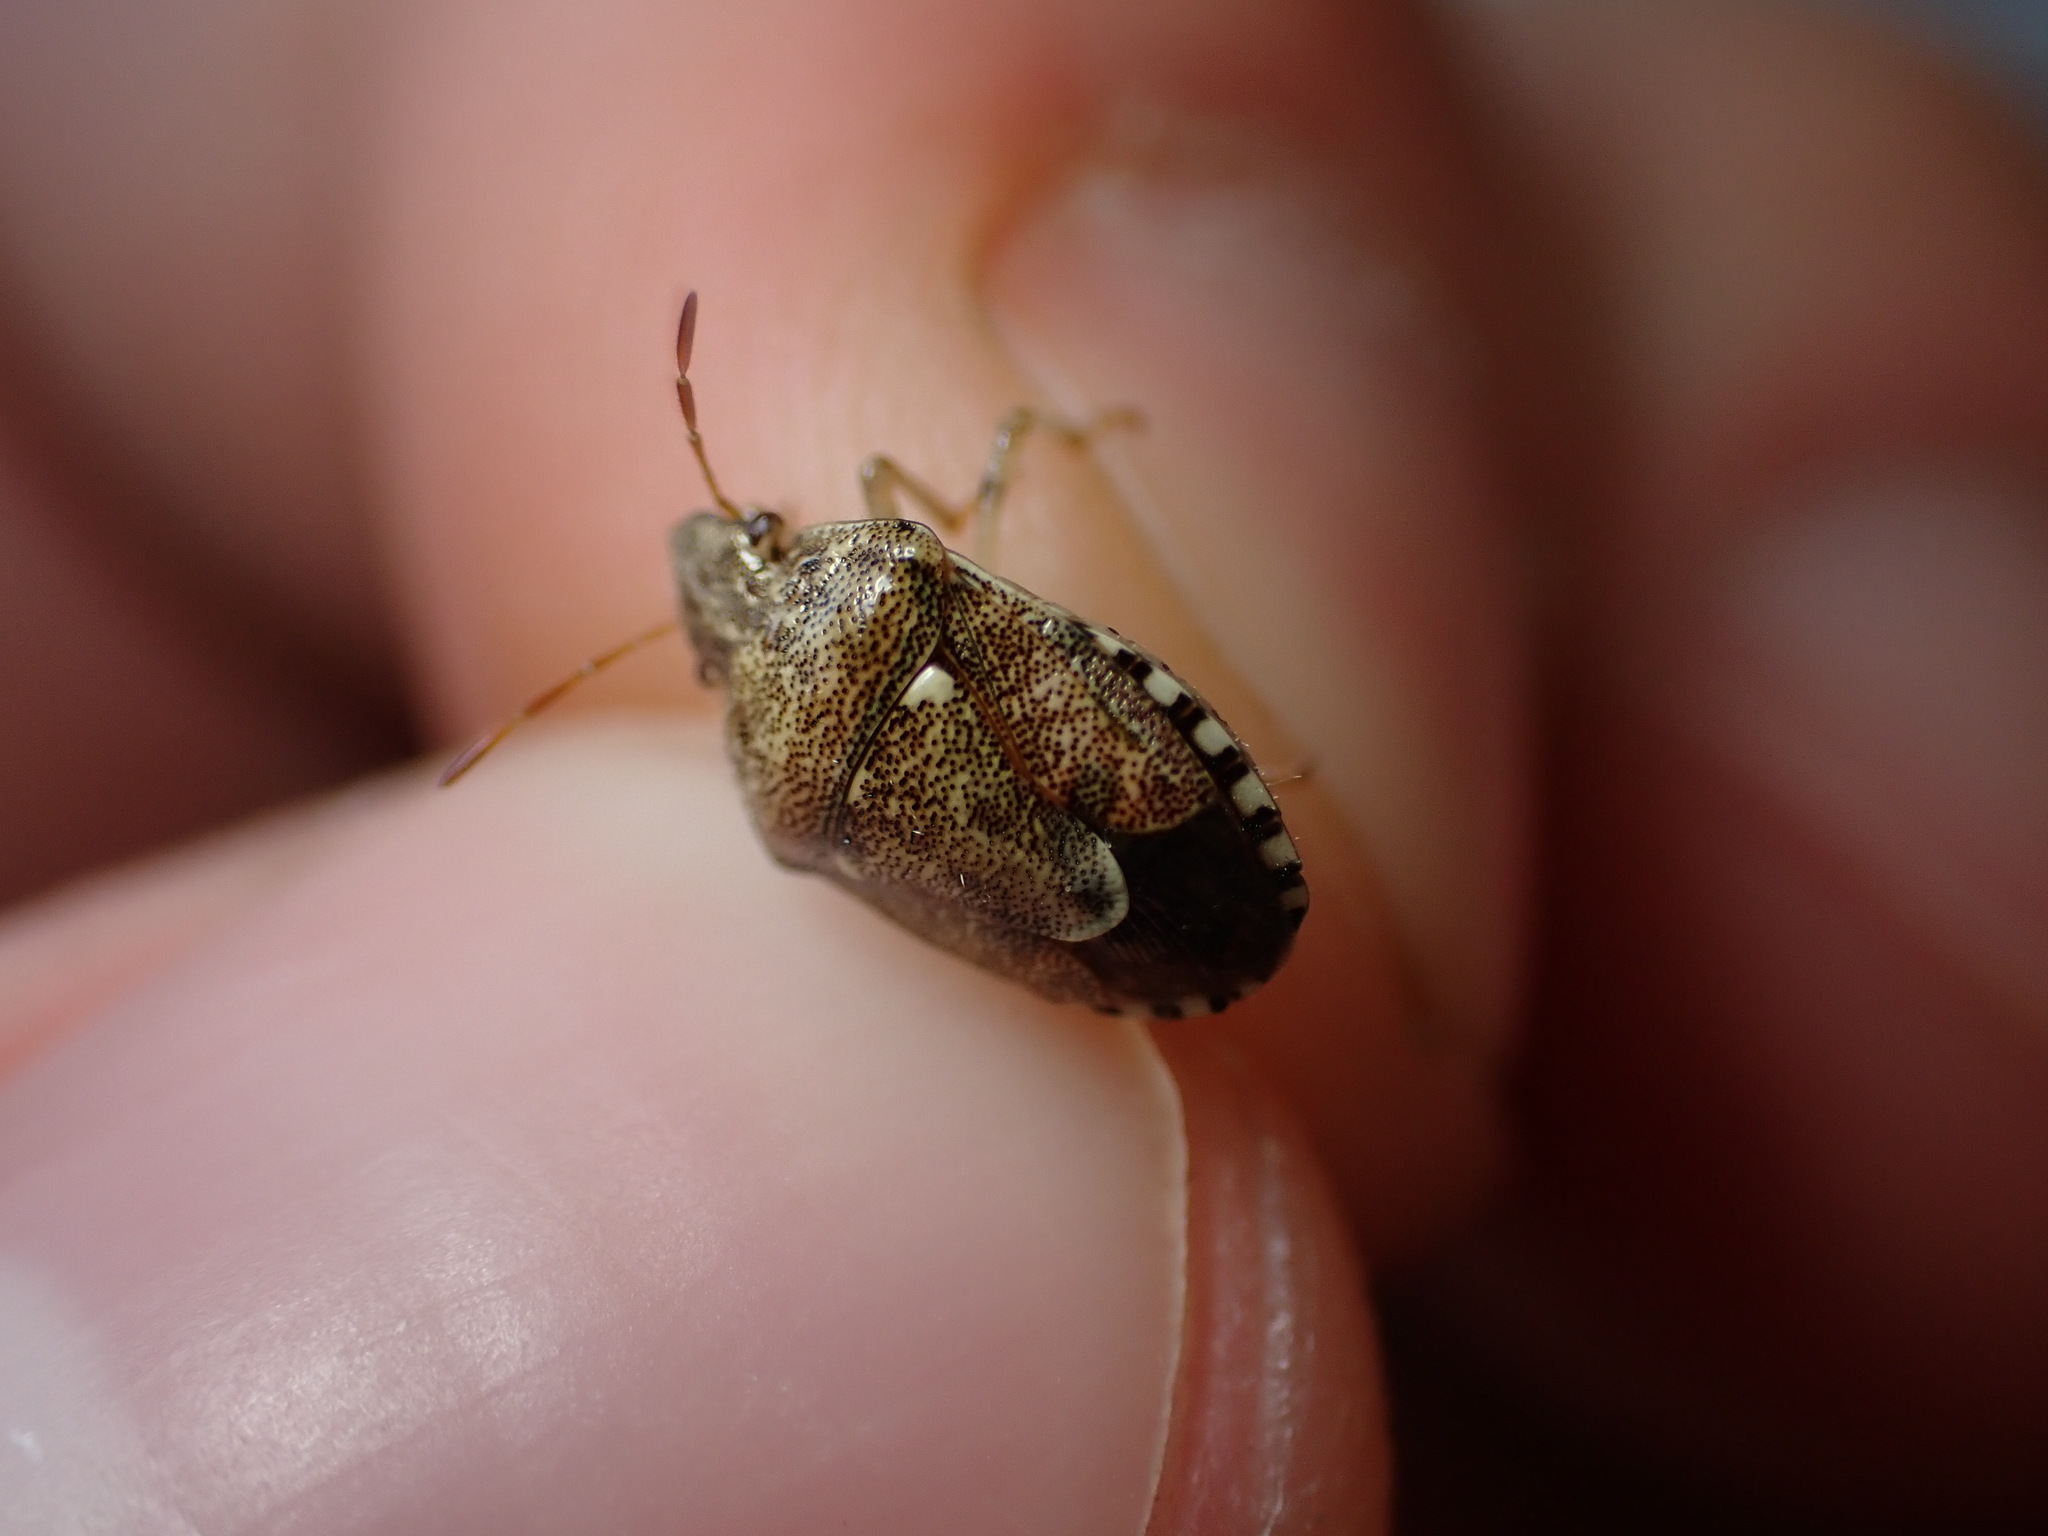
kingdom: Animalia
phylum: Arthropoda
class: Insecta
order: Hemiptera
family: Pentatomidae
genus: Staria
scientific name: Staria lunata
